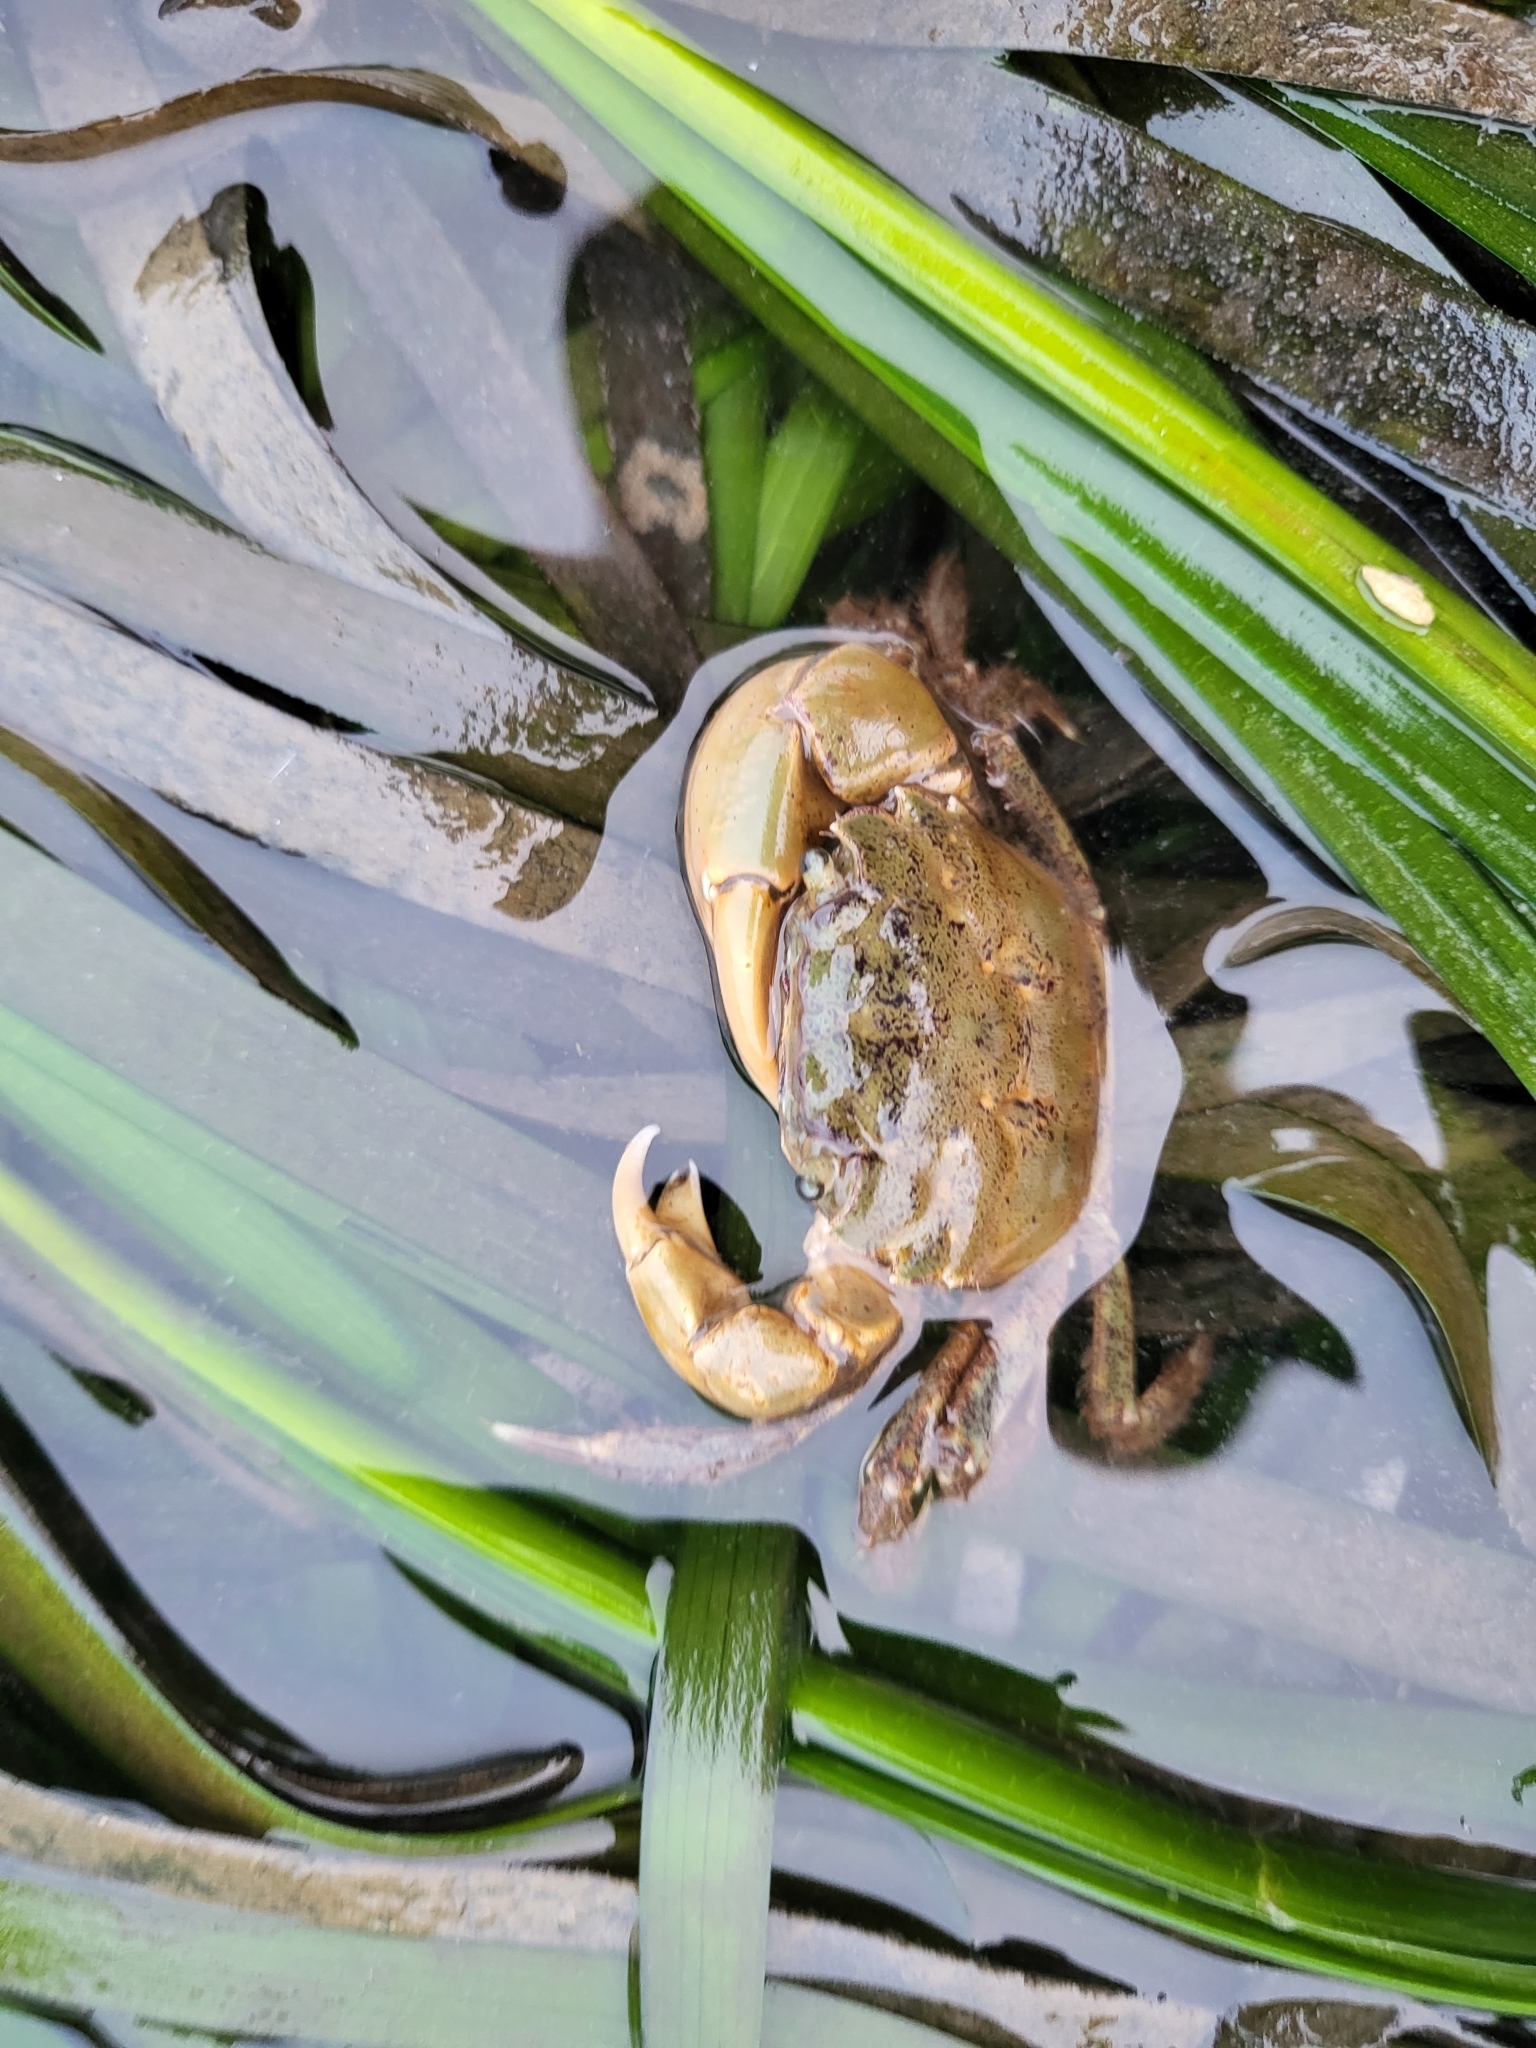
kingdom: Animalia
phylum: Arthropoda
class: Malacostraca
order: Decapoda
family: Varunidae
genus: Hemigrapsus
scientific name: Hemigrapsus oregonensis
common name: Yellow shore crab
